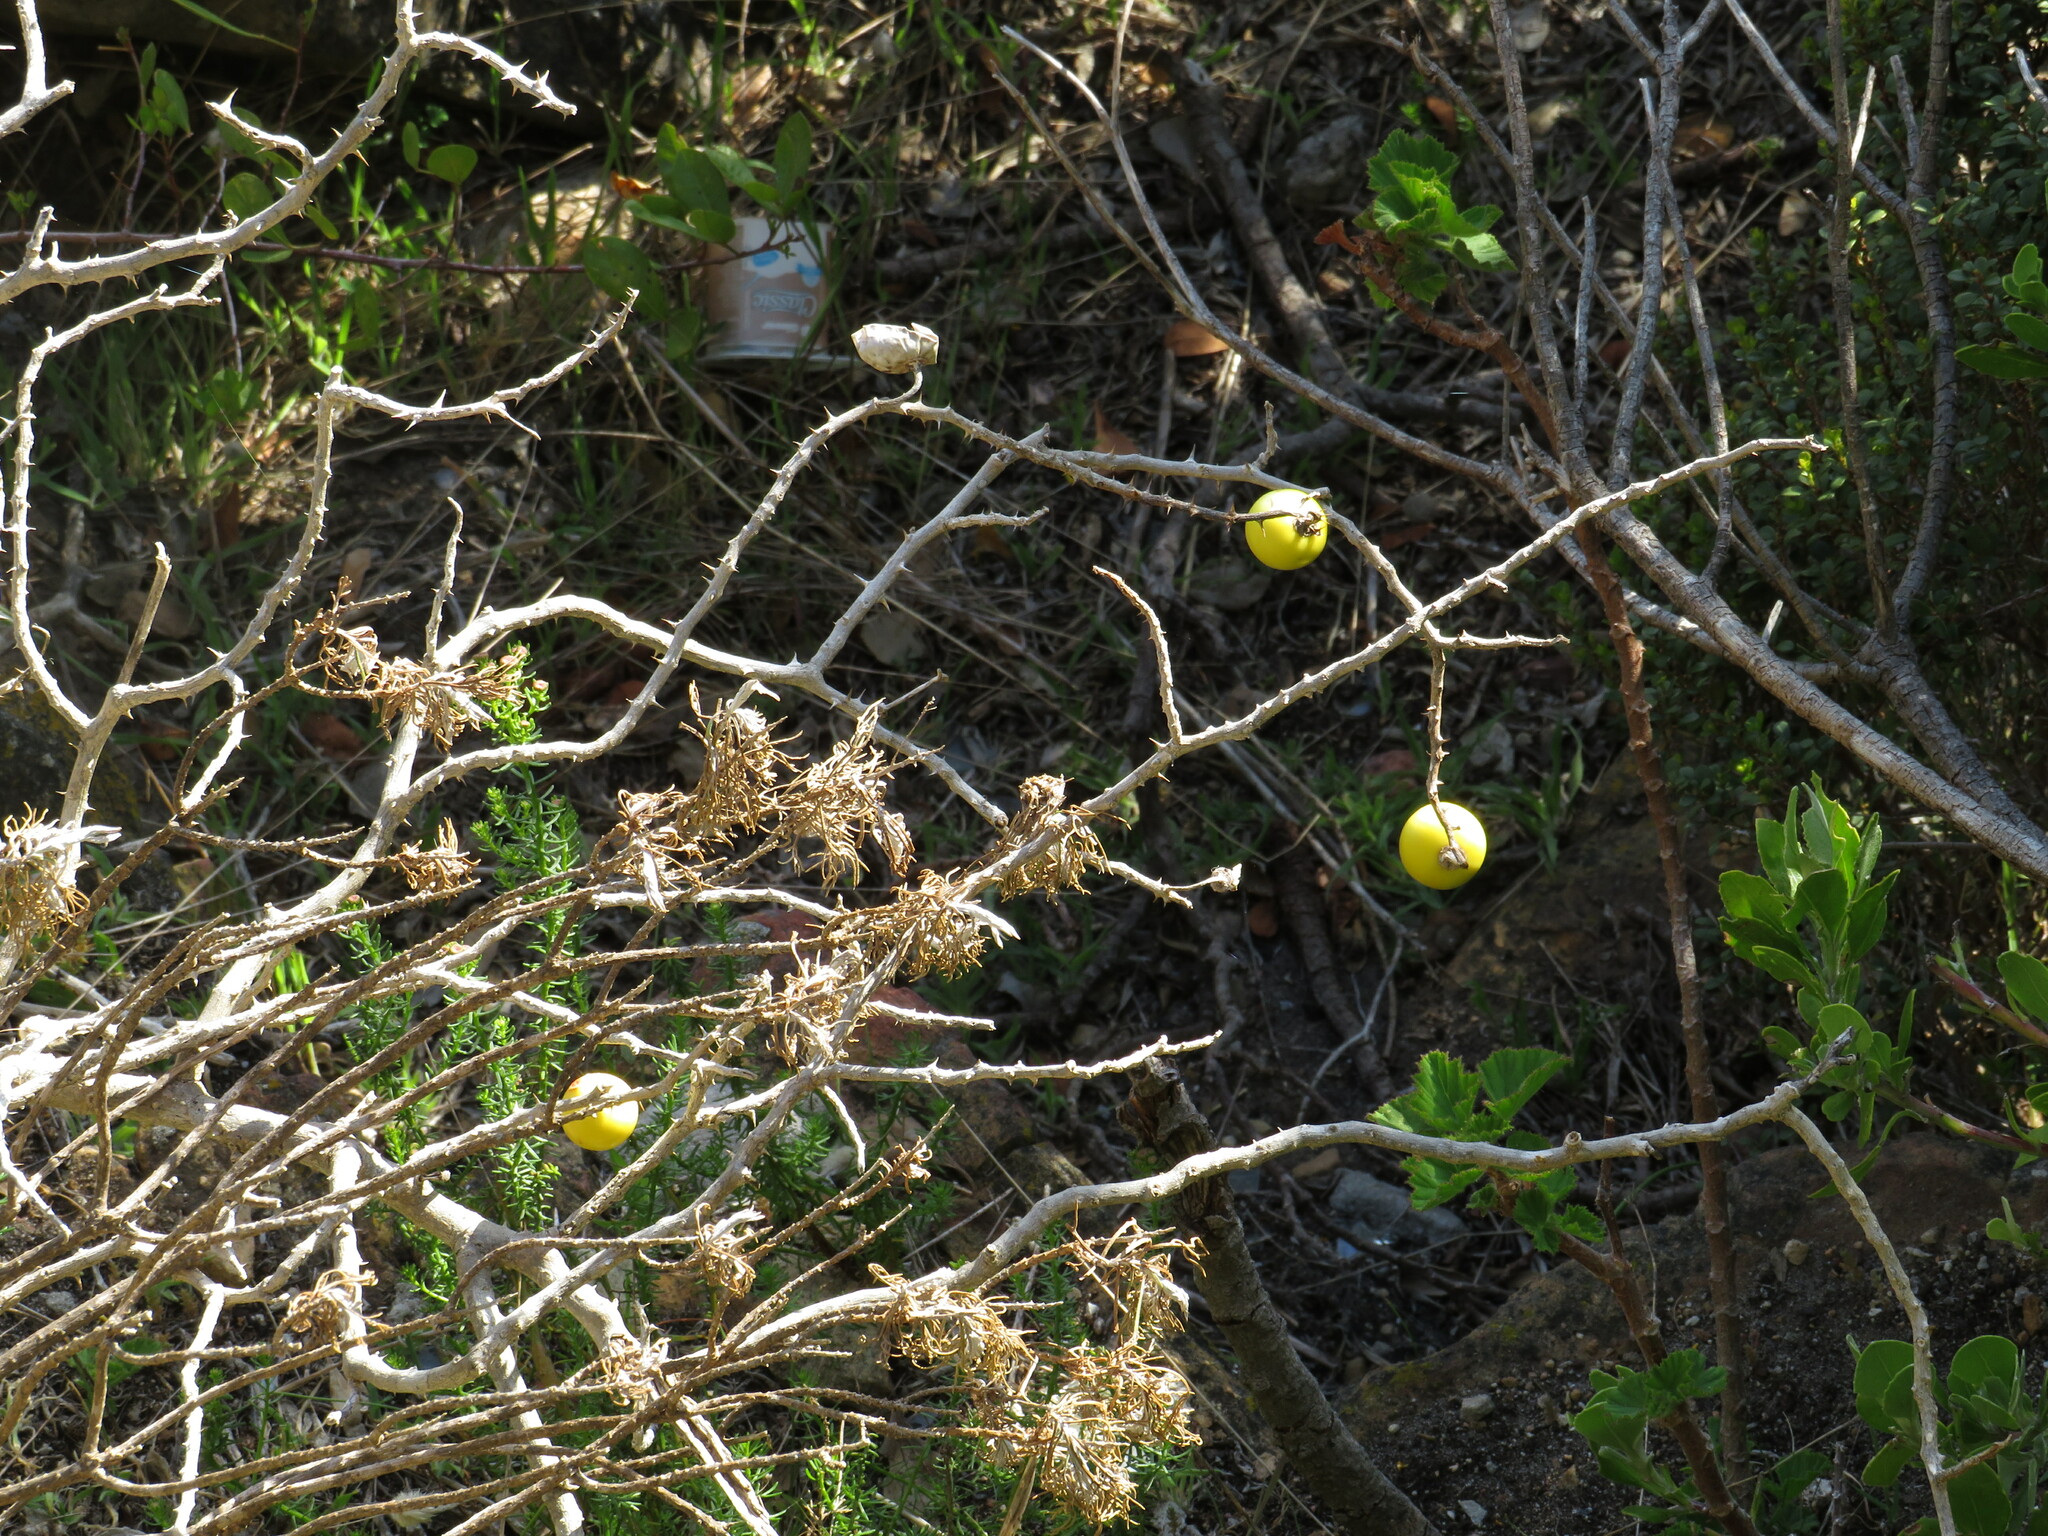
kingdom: Plantae
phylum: Tracheophyta
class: Magnoliopsida
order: Solanales
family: Solanaceae
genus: Solanum
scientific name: Solanum linnaeanum
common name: Nightshade
